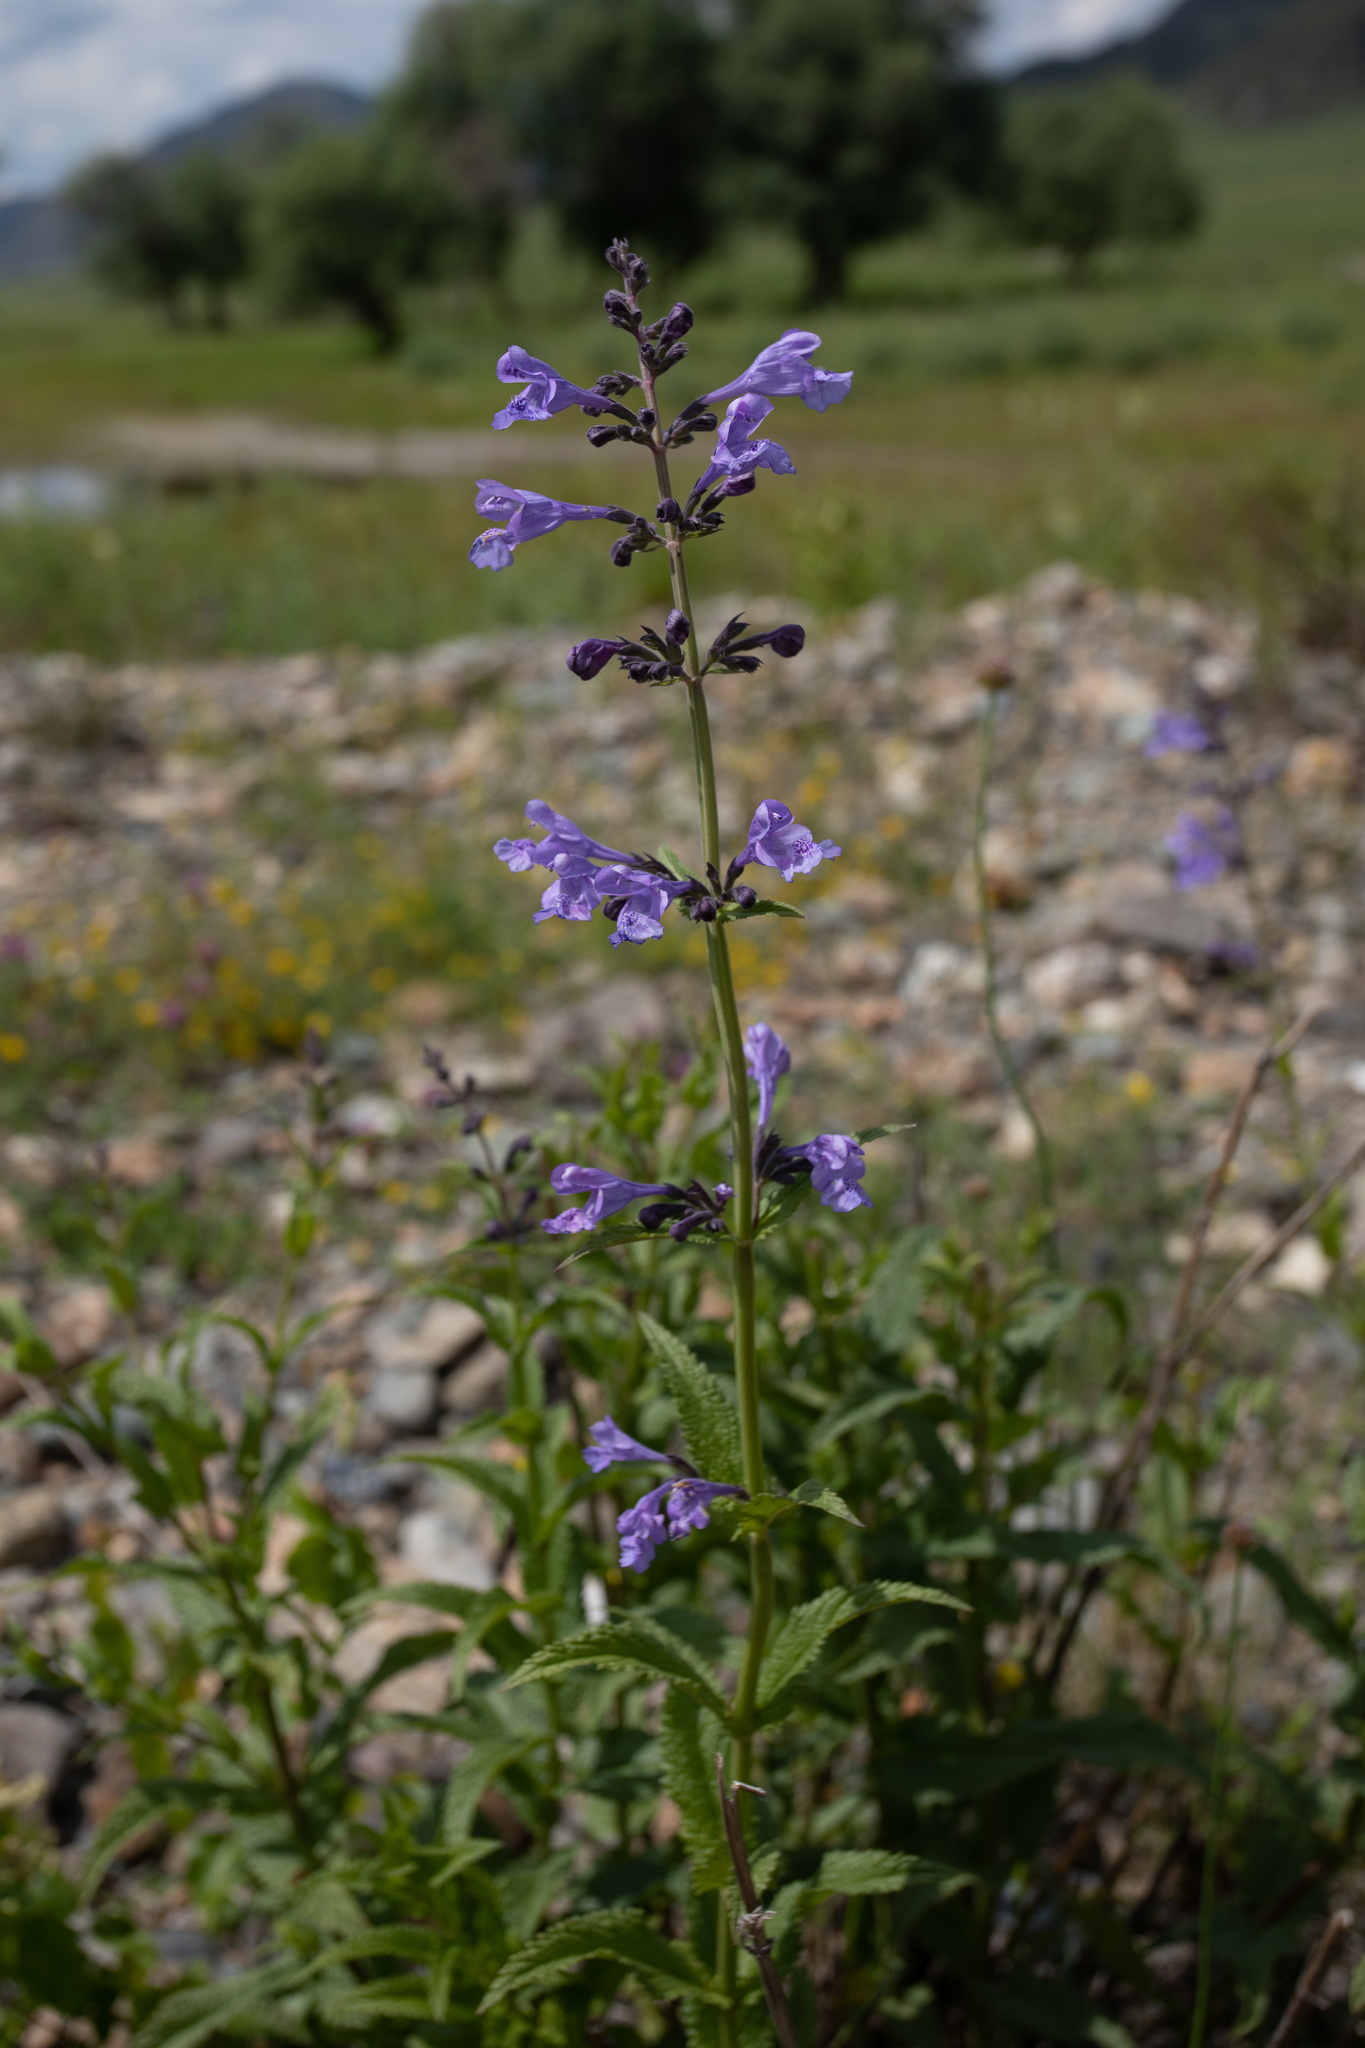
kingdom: Plantae
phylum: Tracheophyta
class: Magnoliopsida
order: Lamiales
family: Lamiaceae
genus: Nepeta
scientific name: Nepeta sibirica
